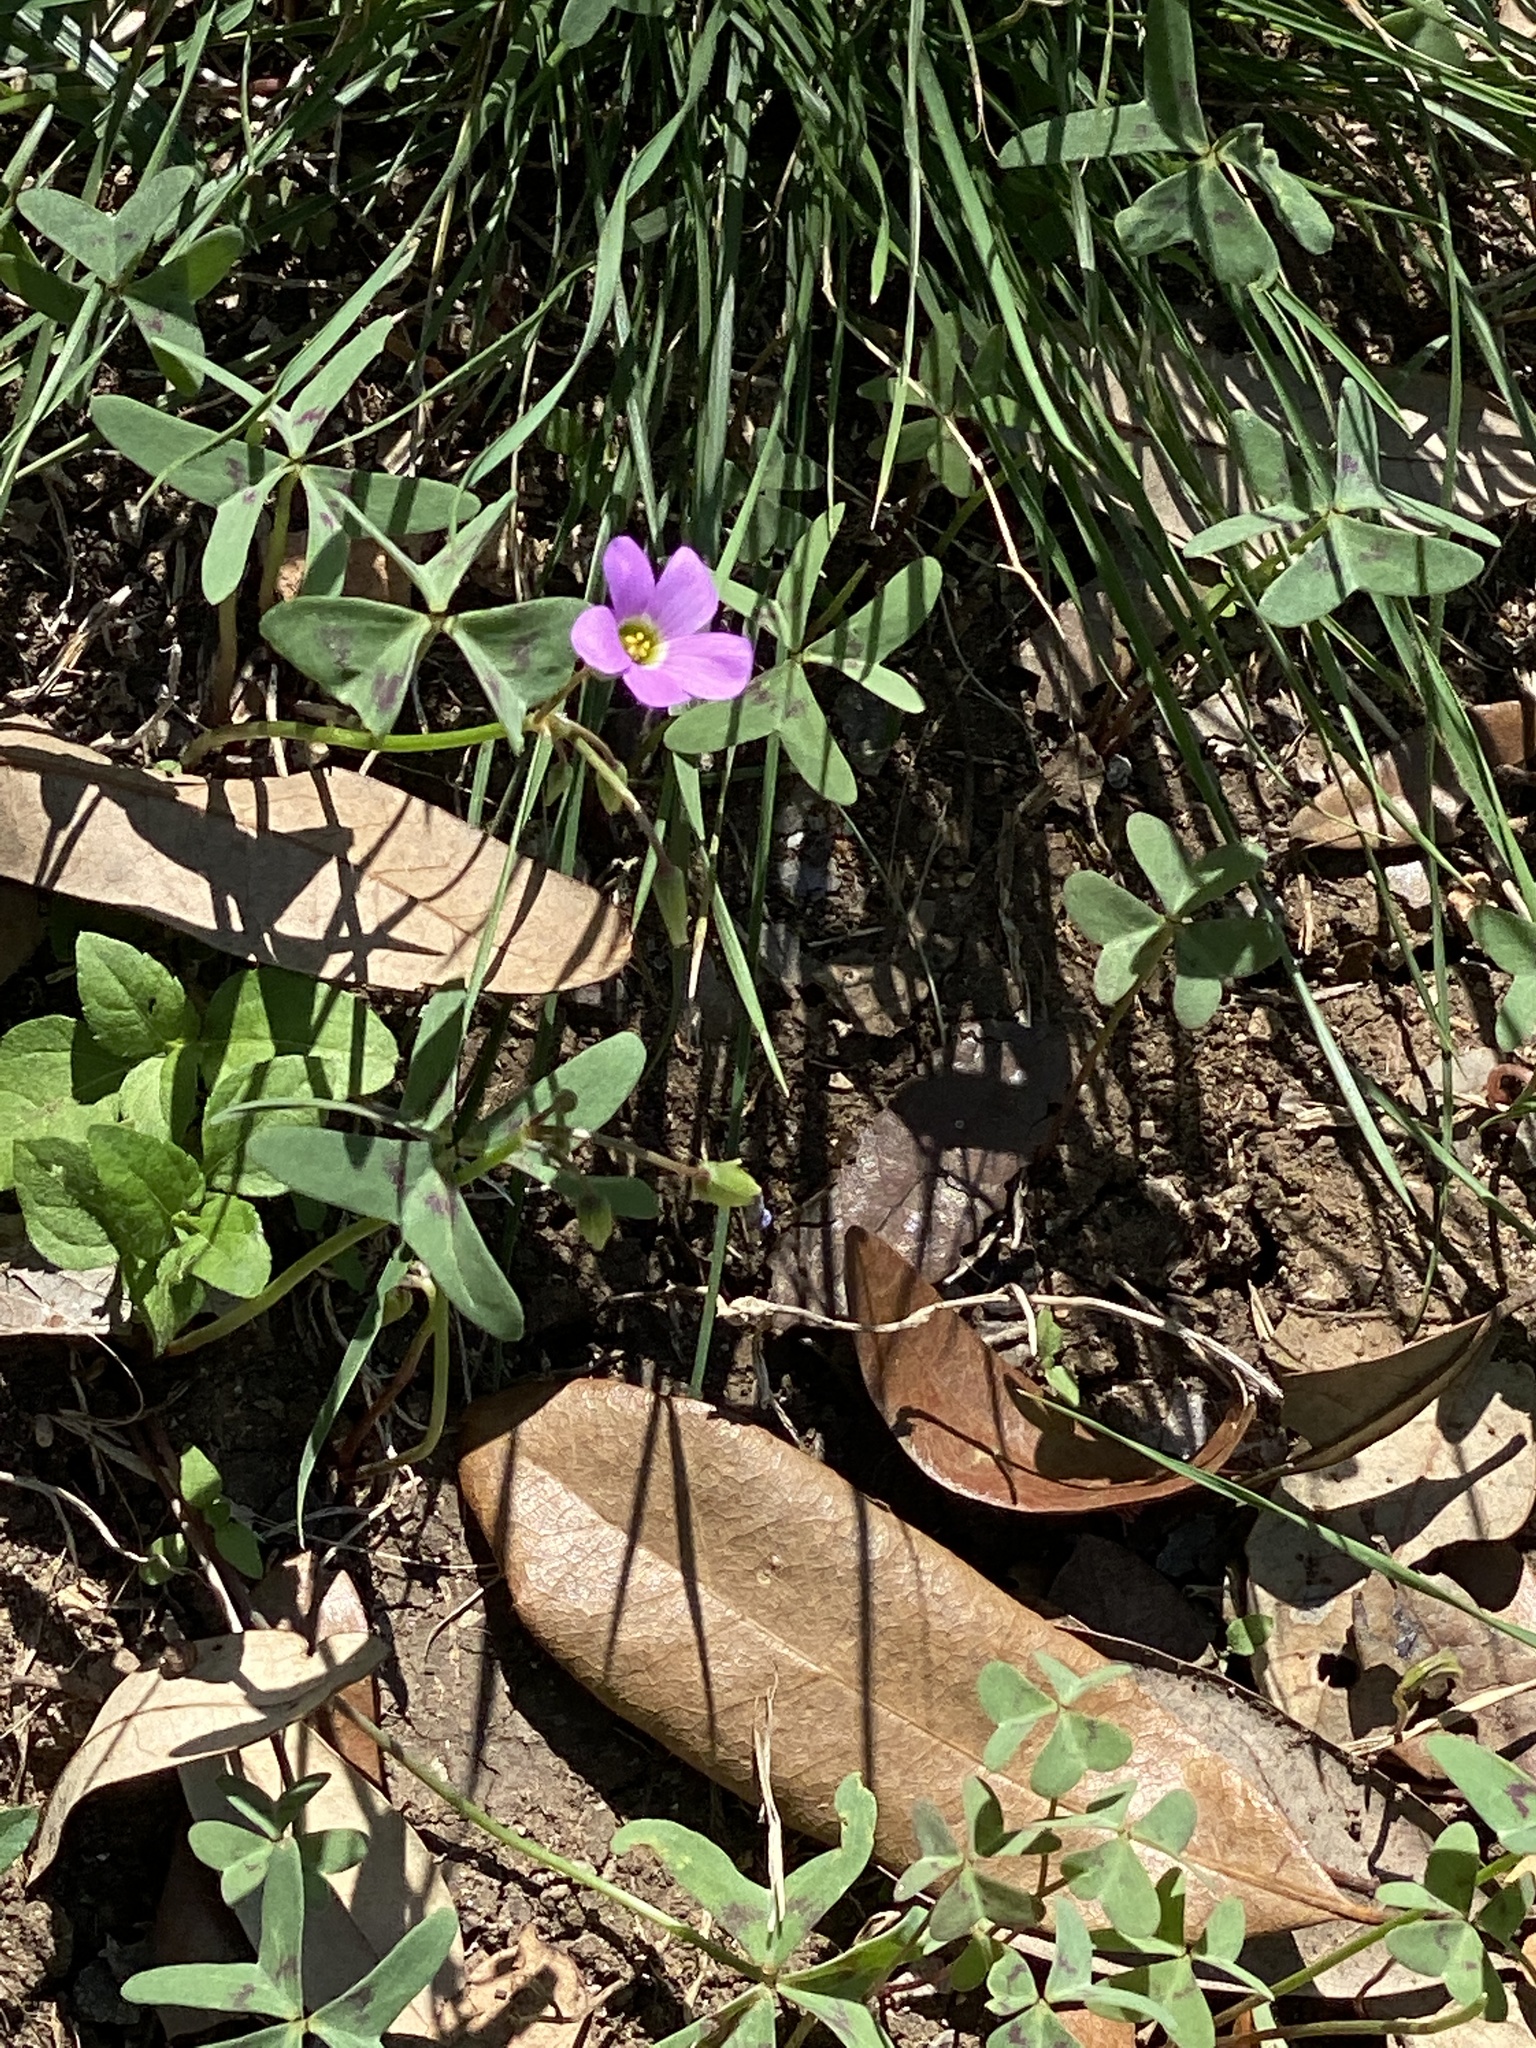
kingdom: Plantae
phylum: Tracheophyta
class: Magnoliopsida
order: Oxalidales
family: Oxalidaceae
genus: Oxalis
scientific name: Oxalis drummondii
